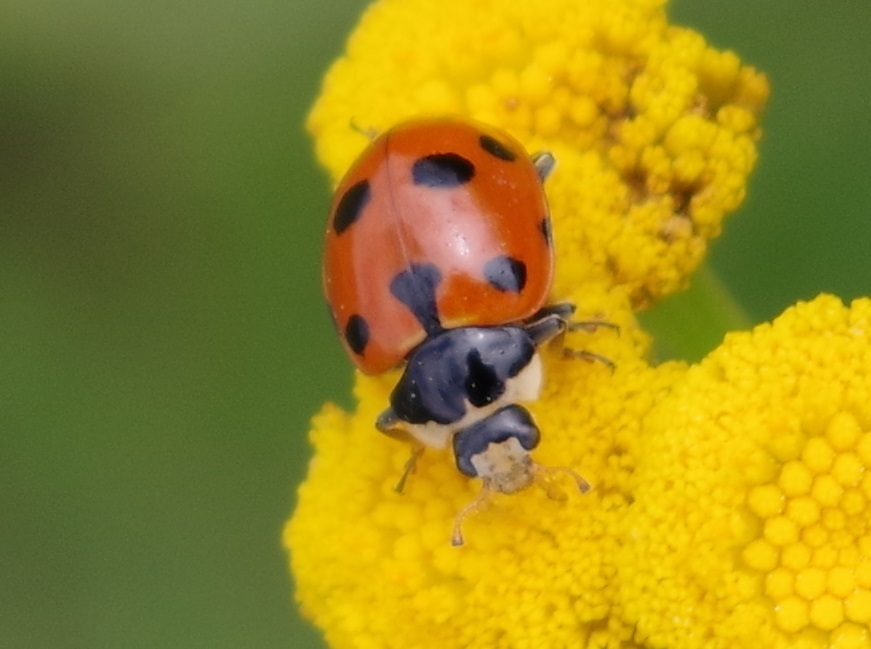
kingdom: Animalia
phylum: Arthropoda
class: Insecta
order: Coleoptera
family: Coccinellidae
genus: Ceratomegilla
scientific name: Ceratomegilla undecimnotata
